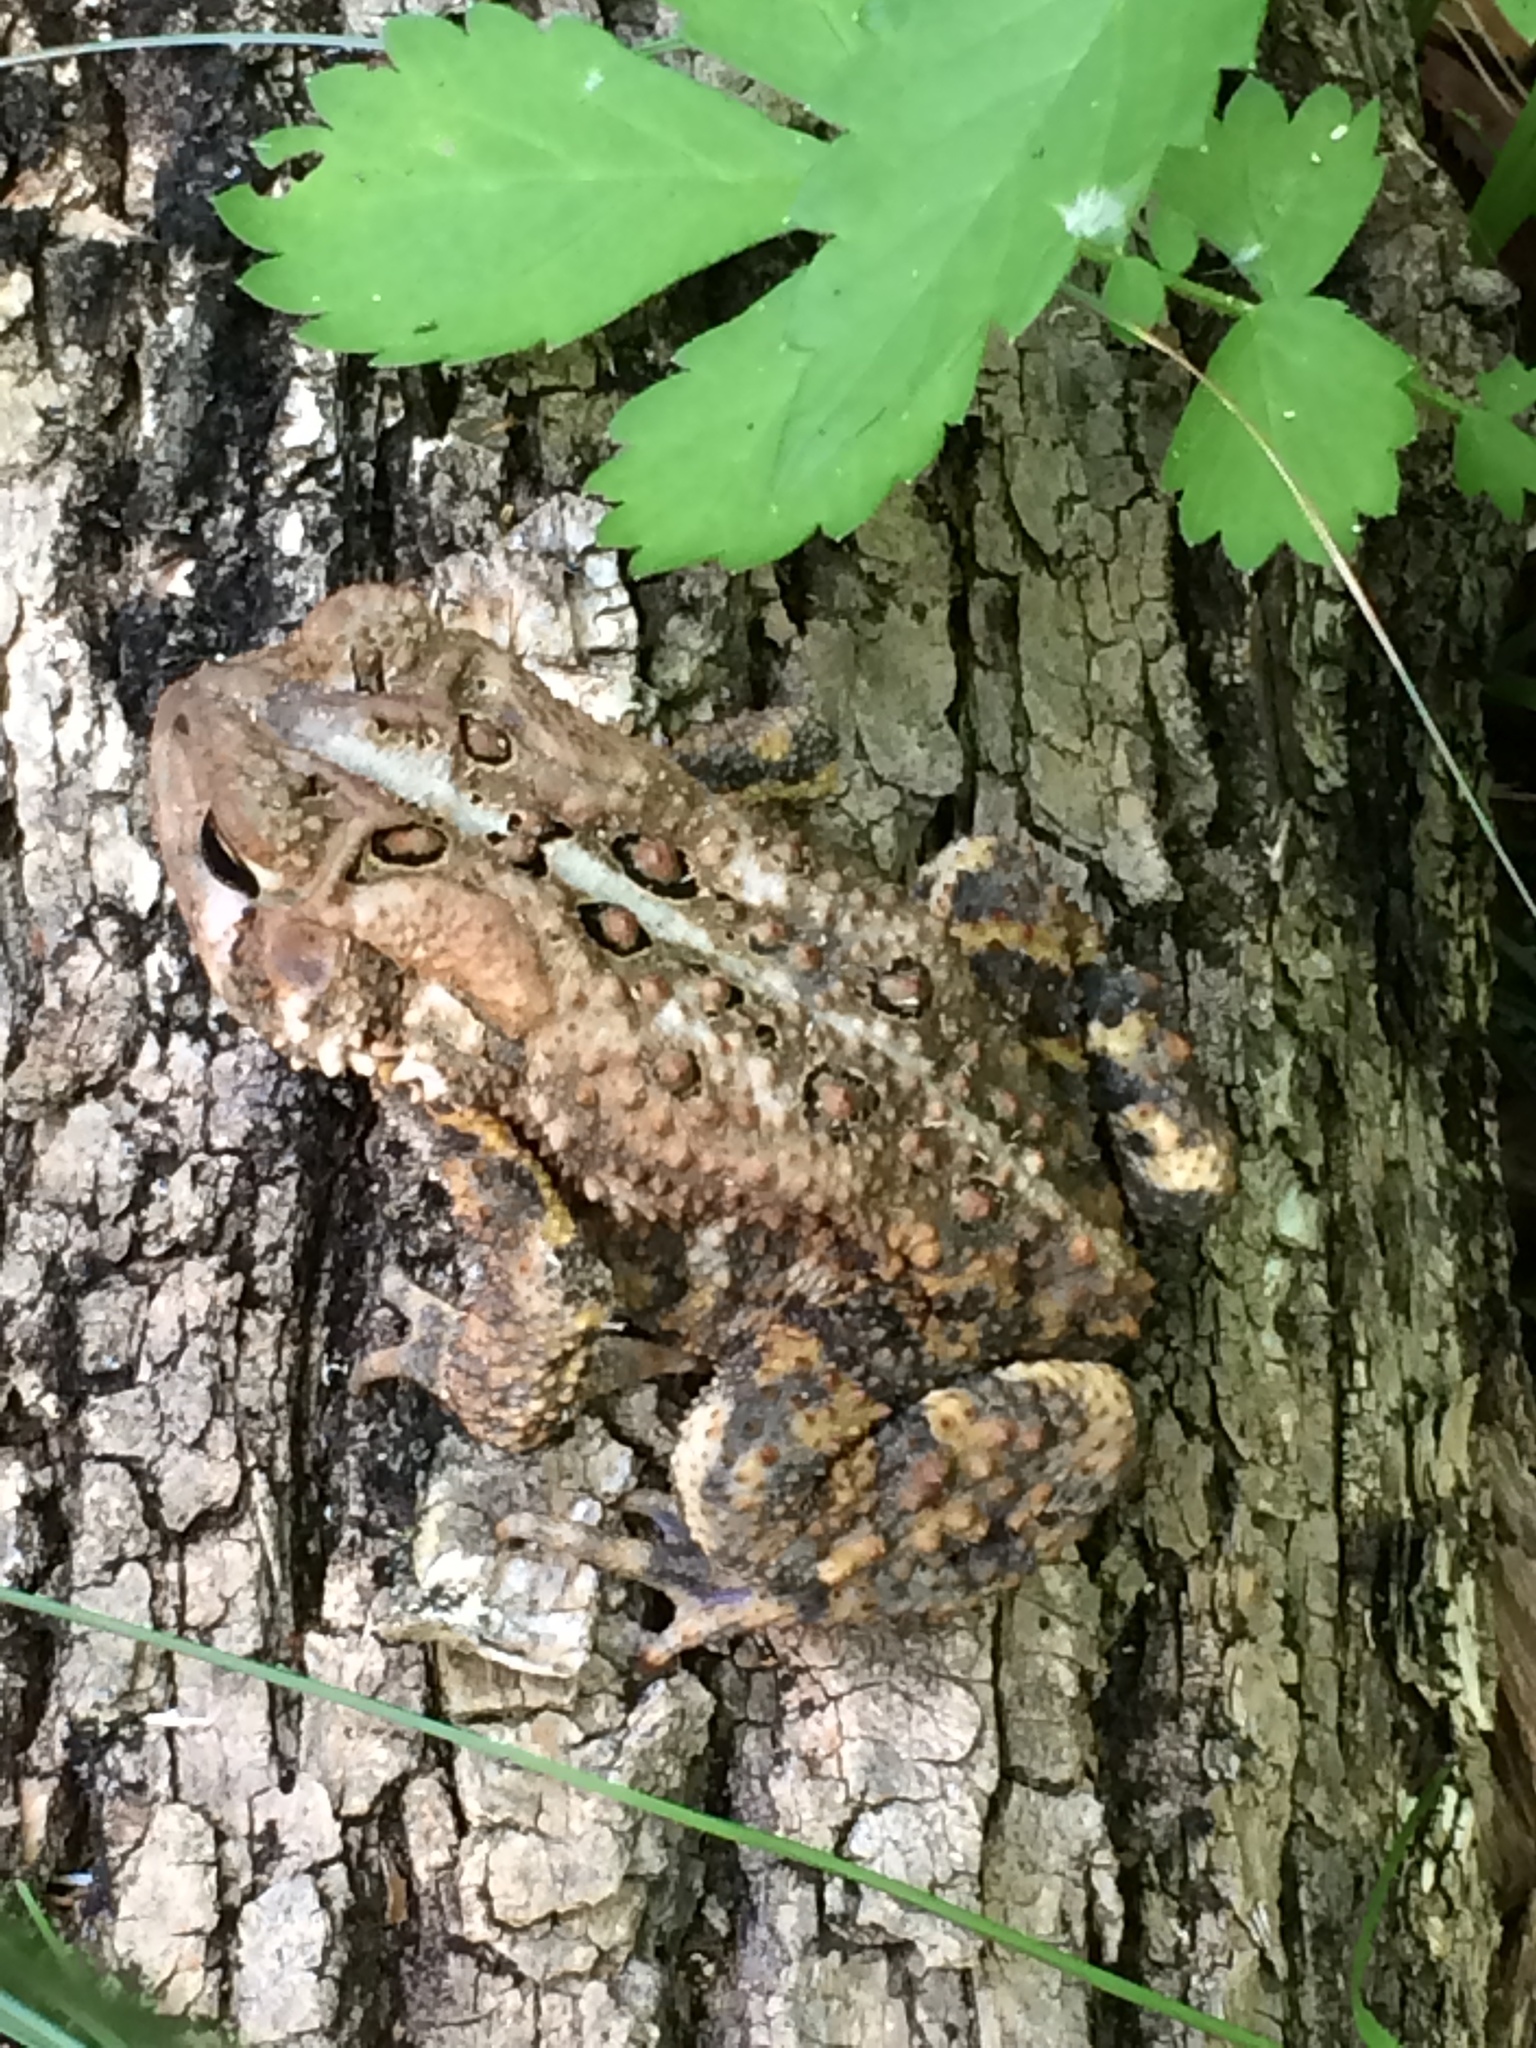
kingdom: Animalia
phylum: Chordata
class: Amphibia
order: Anura
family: Bufonidae
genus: Anaxyrus
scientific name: Anaxyrus americanus
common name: American toad
